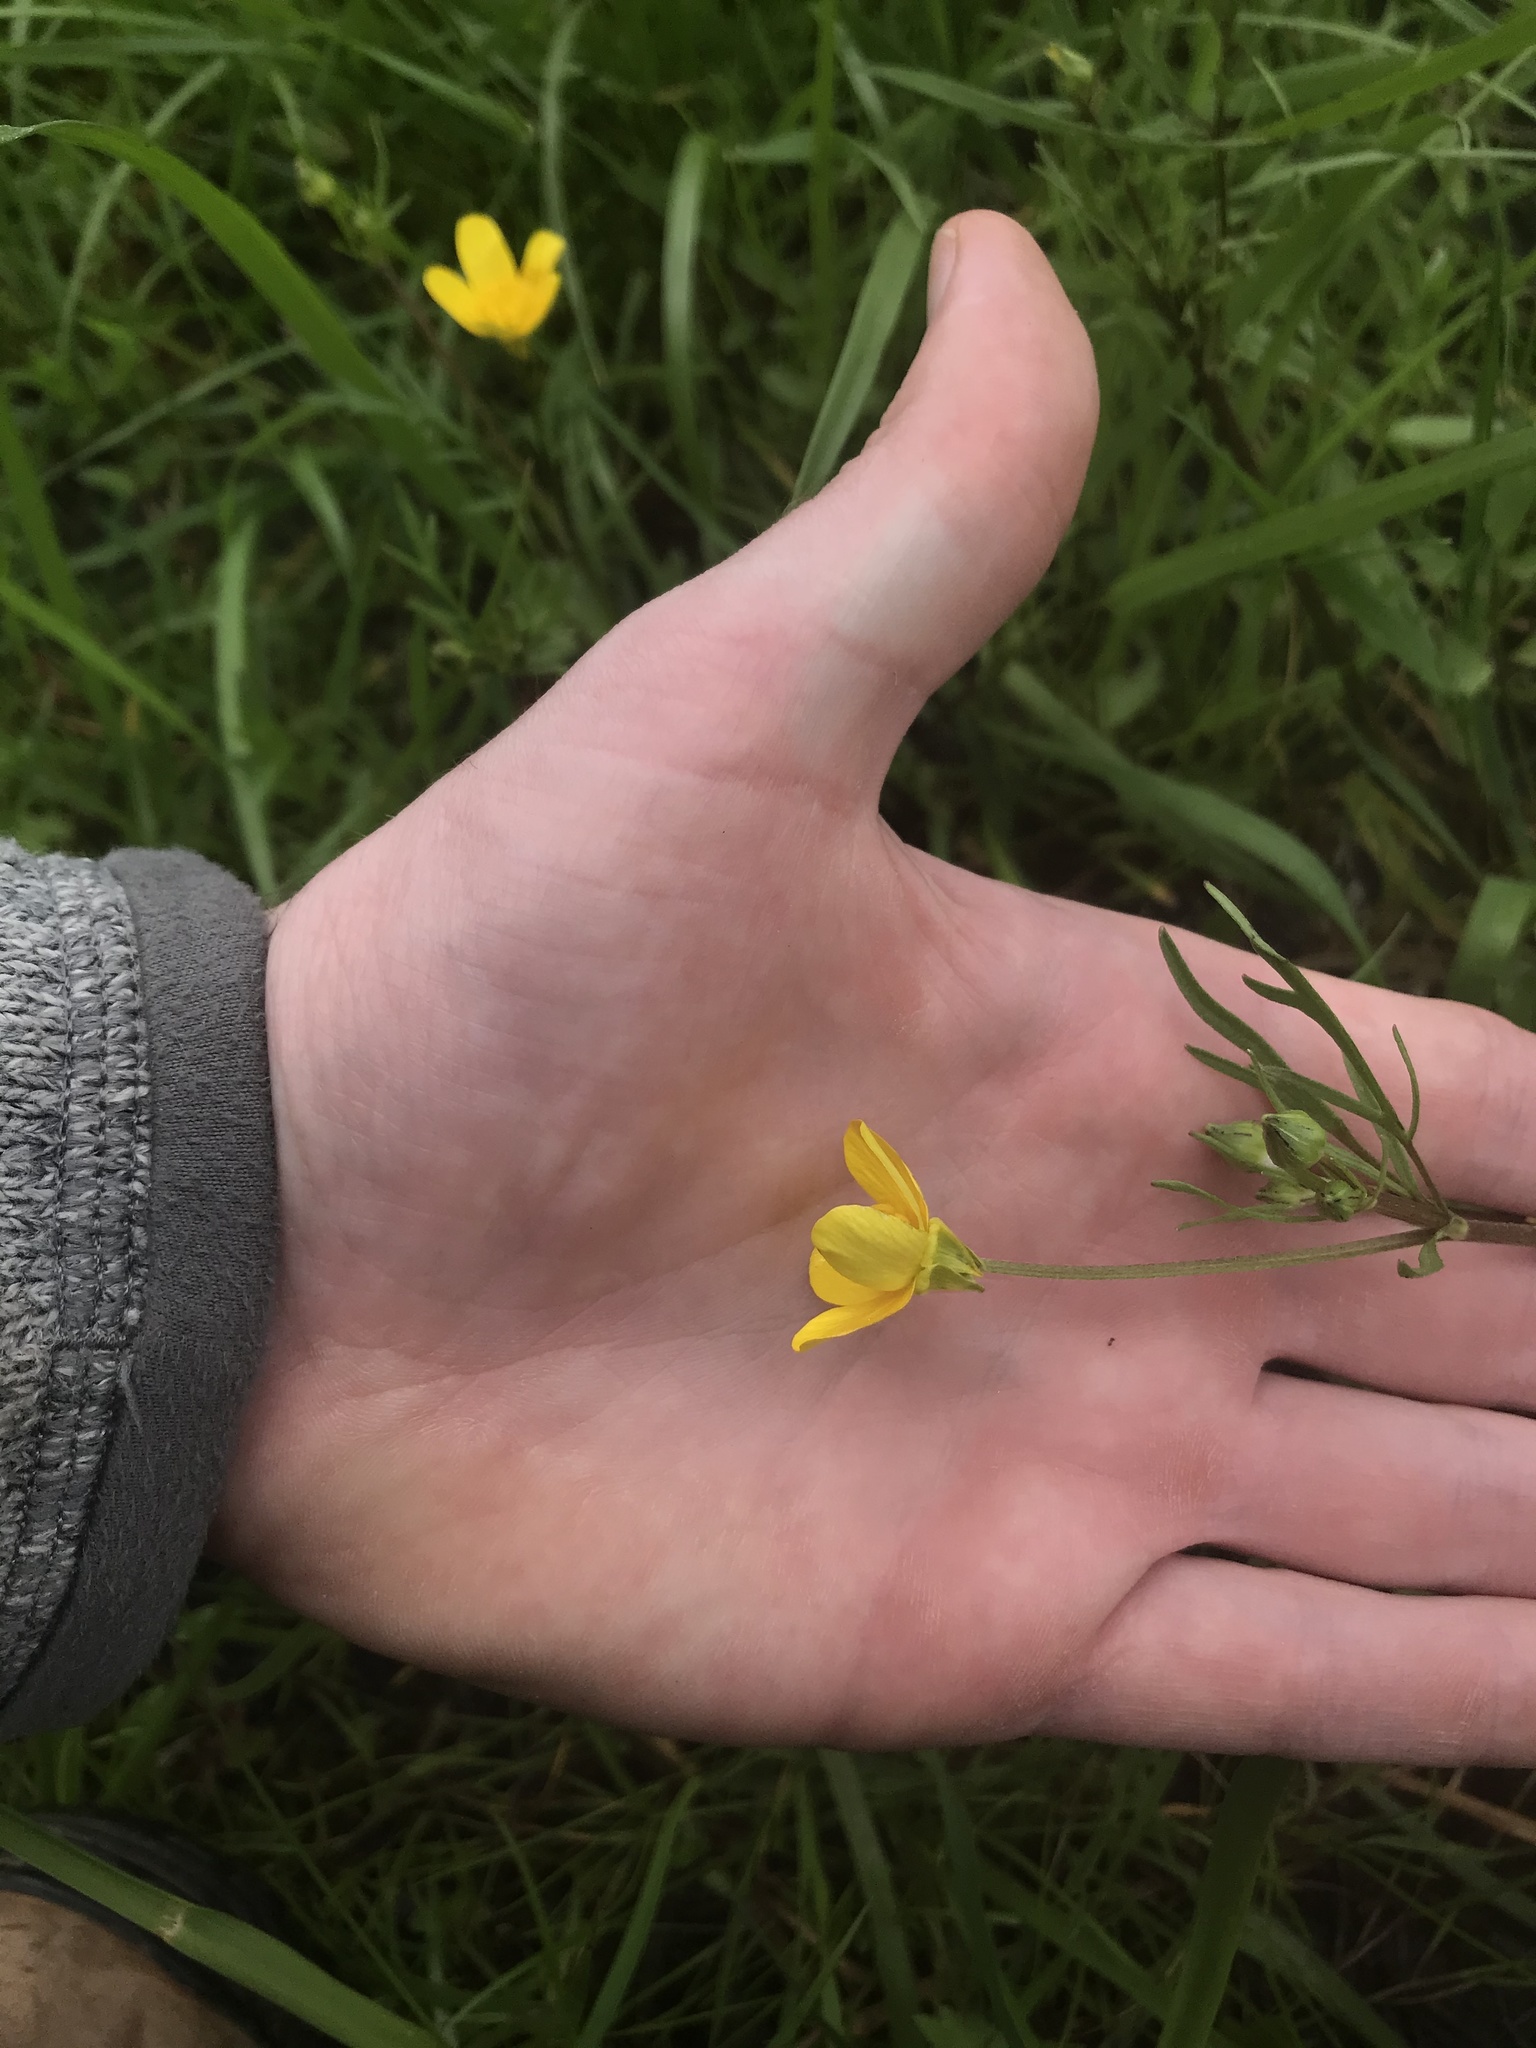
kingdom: Plantae
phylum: Tracheophyta
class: Magnoliopsida
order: Ranunculales
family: Ranunculaceae
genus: Ranunculus
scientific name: Ranunculus orthorhynchus
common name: Straight-beak buttercup
